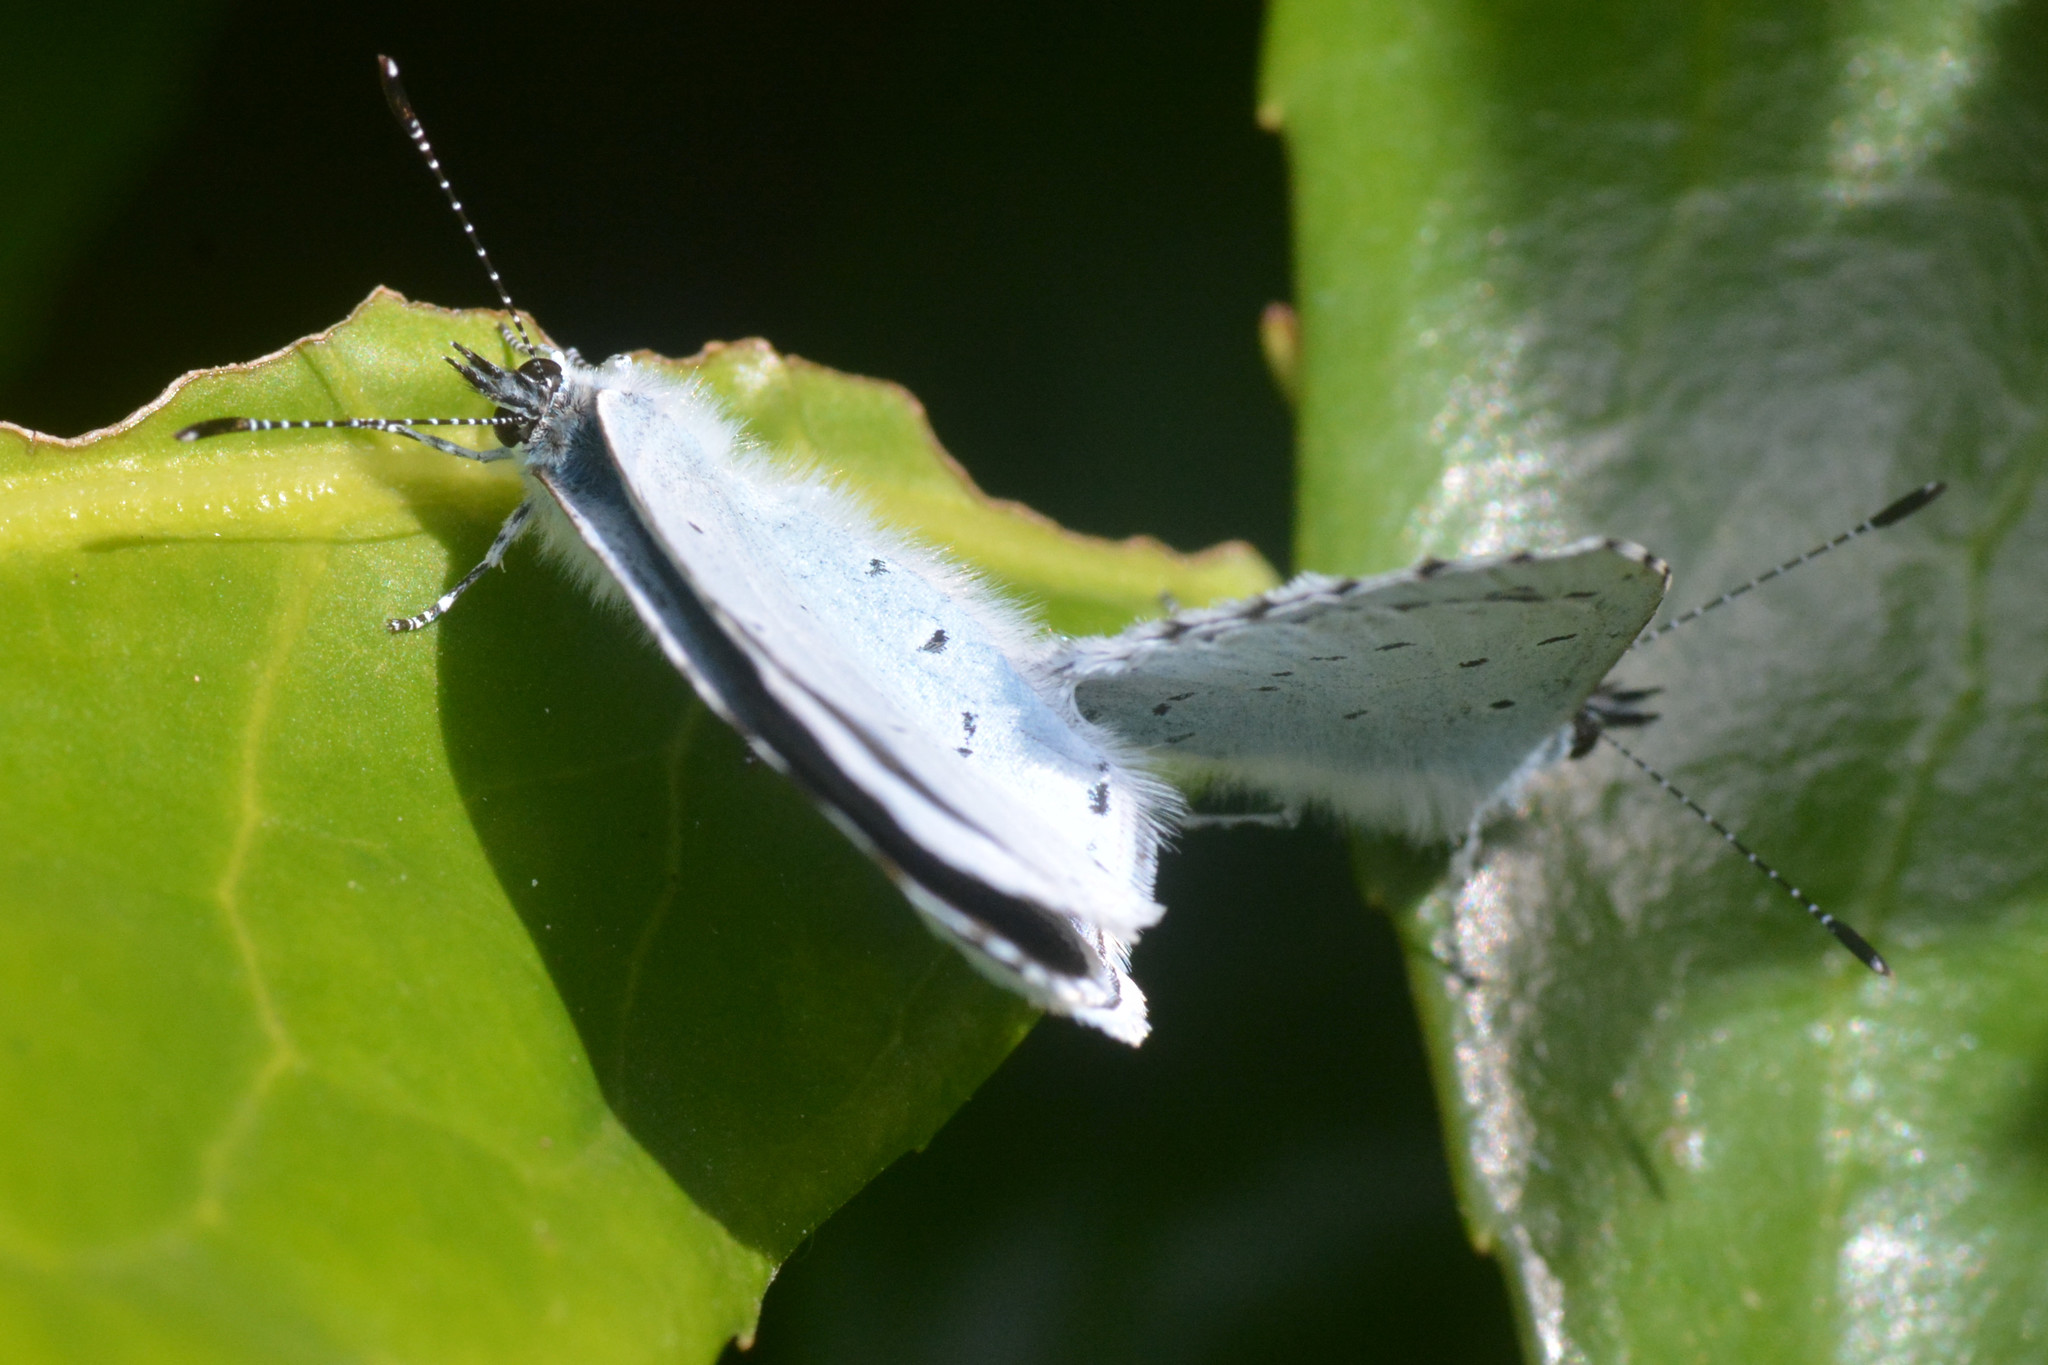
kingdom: Animalia
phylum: Arthropoda
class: Insecta
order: Lepidoptera
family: Lycaenidae
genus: Celastrina
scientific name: Celastrina argiolus
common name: Holly blue
